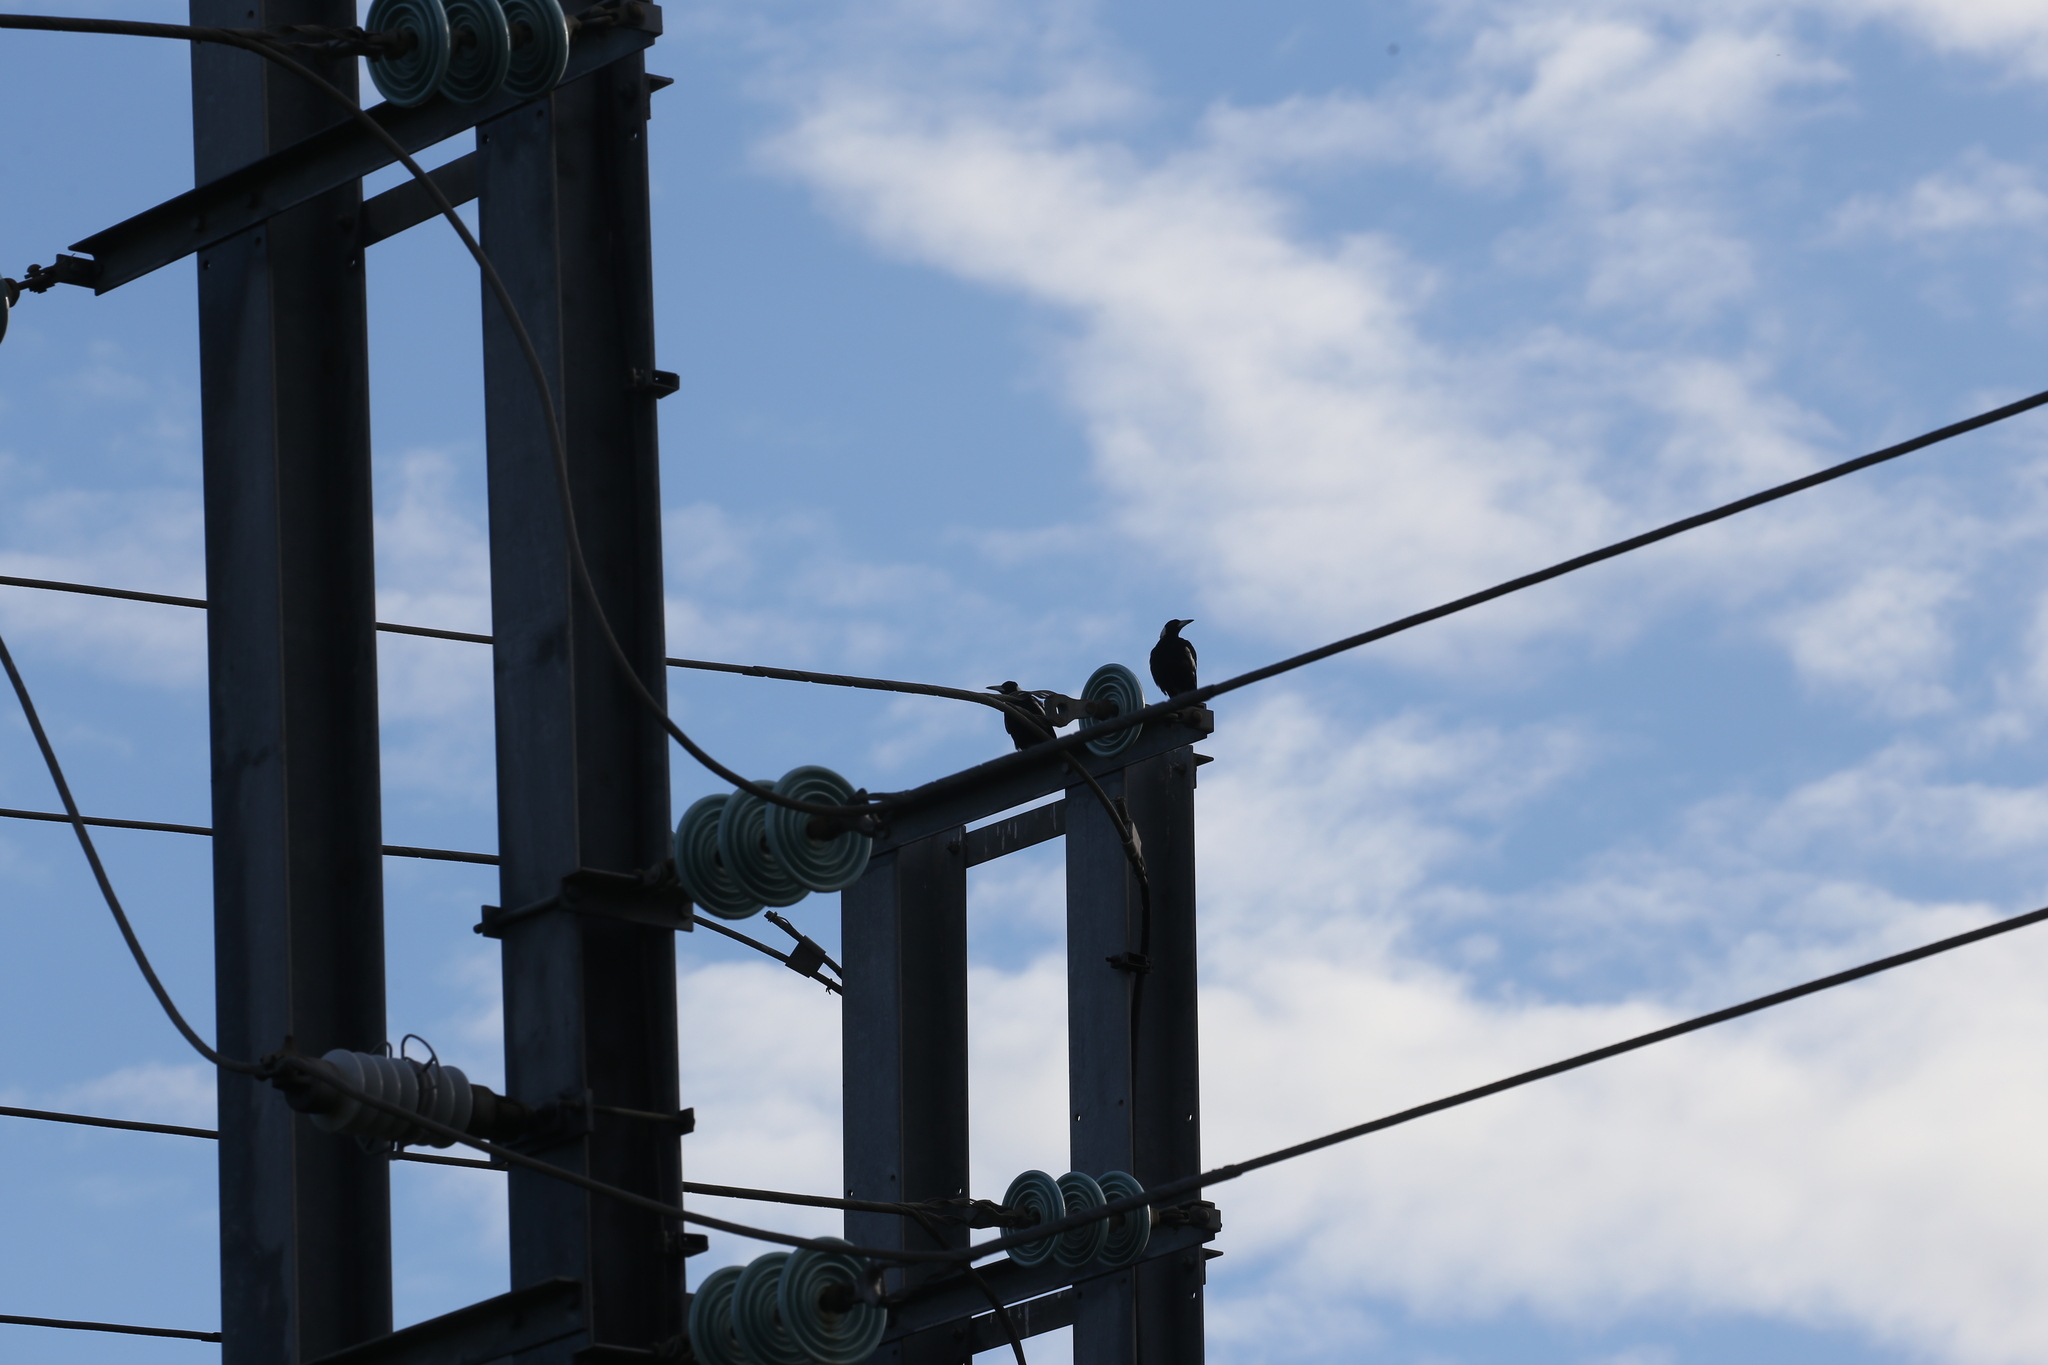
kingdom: Animalia
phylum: Chordata
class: Aves
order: Passeriformes
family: Cracticidae
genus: Gymnorhina
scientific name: Gymnorhina tibicen
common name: Australian magpie
